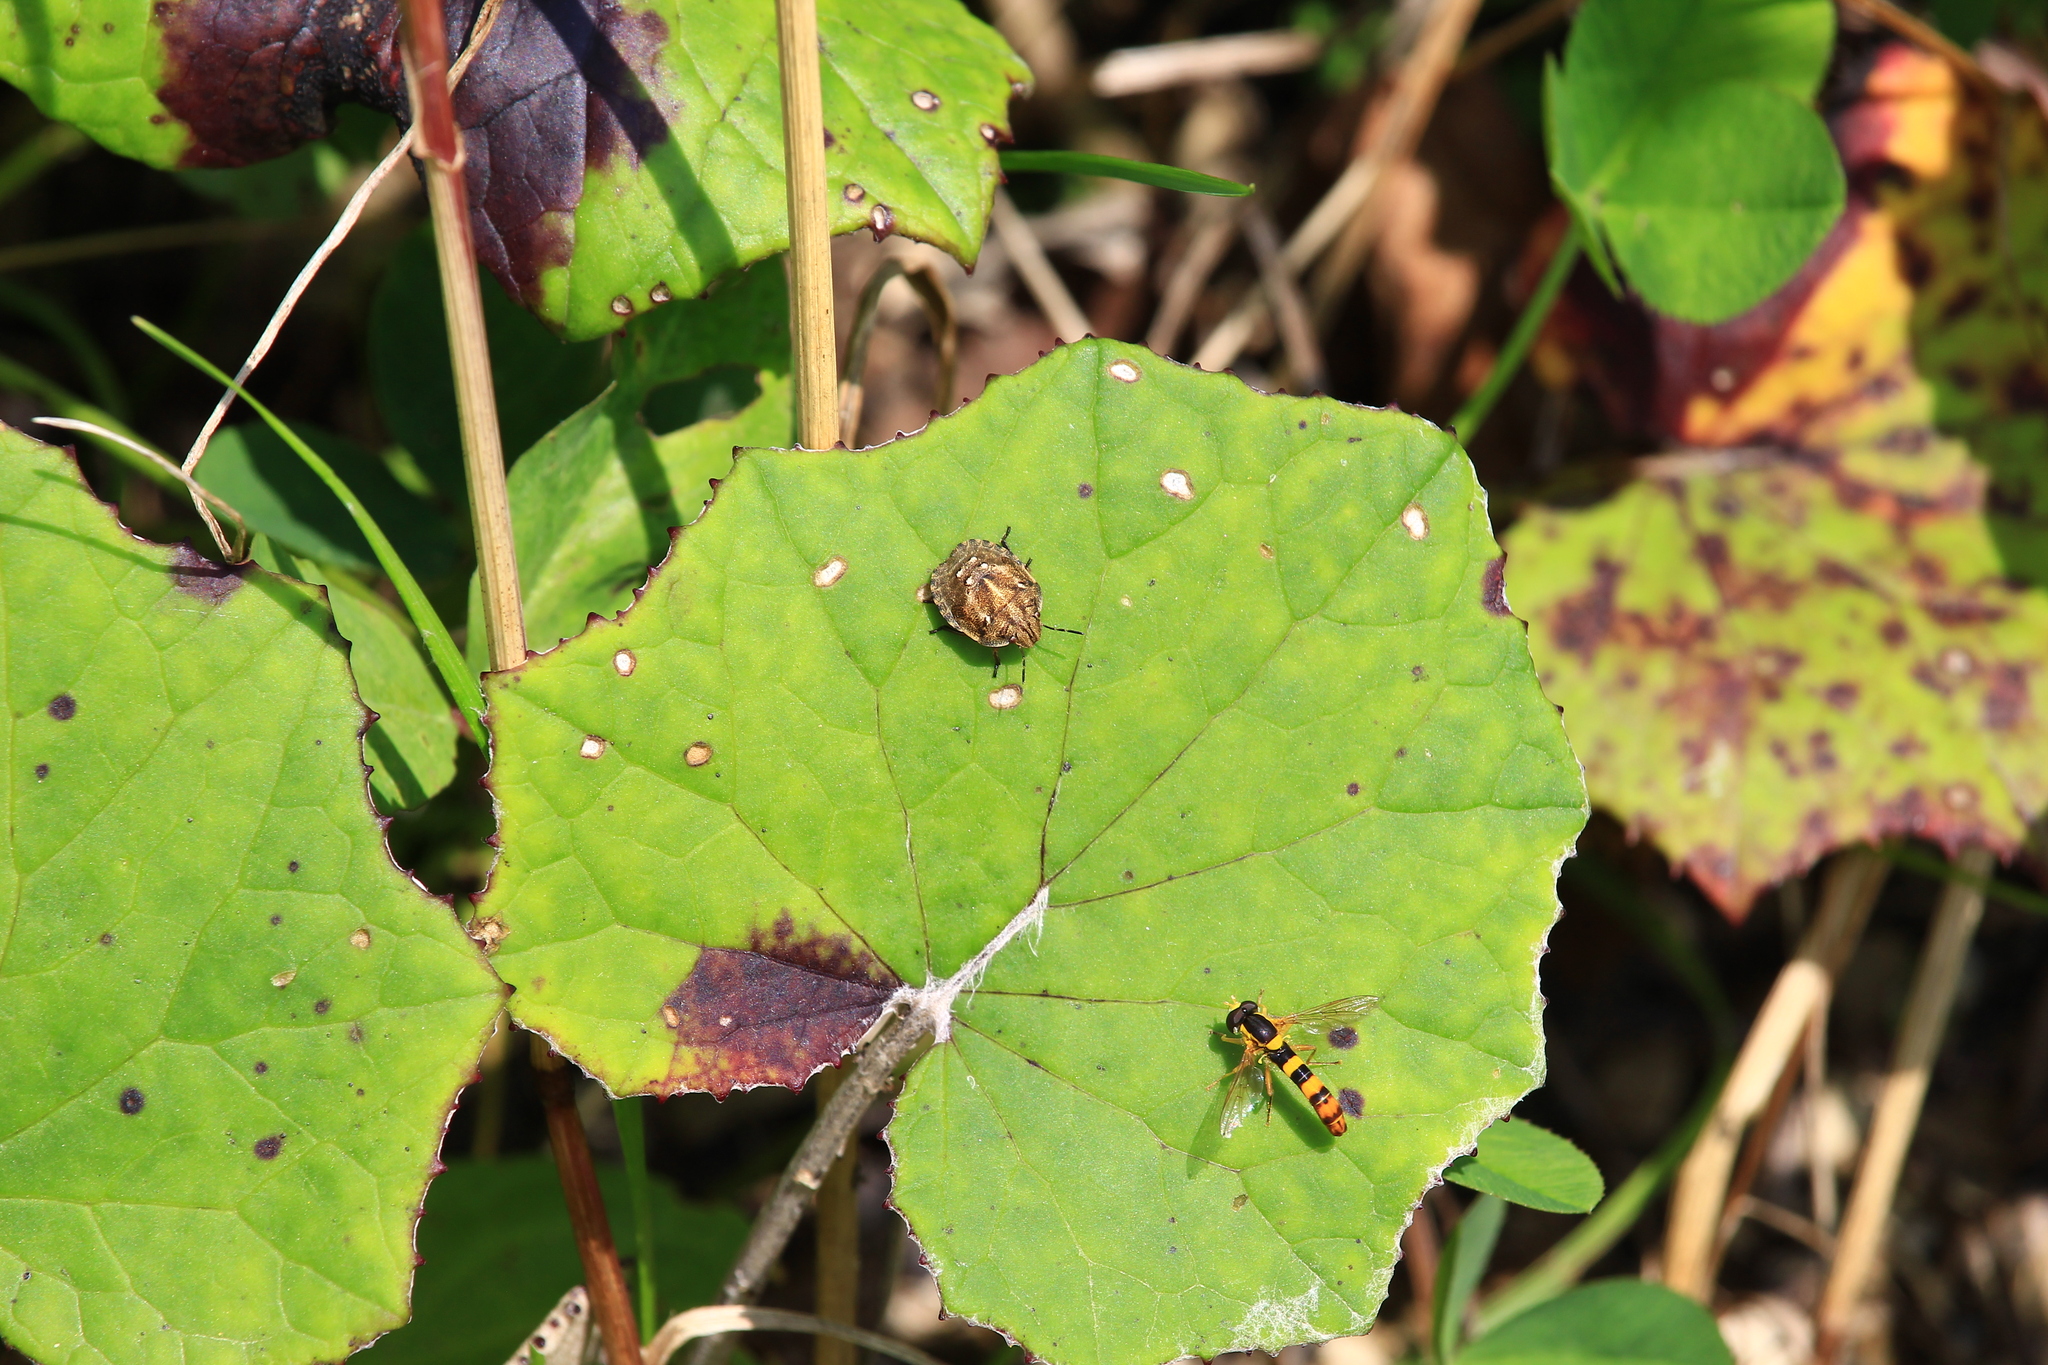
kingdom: Animalia
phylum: Arthropoda
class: Insecta
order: Diptera
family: Syrphidae
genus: Sphaerophoria
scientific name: Sphaerophoria scripta
